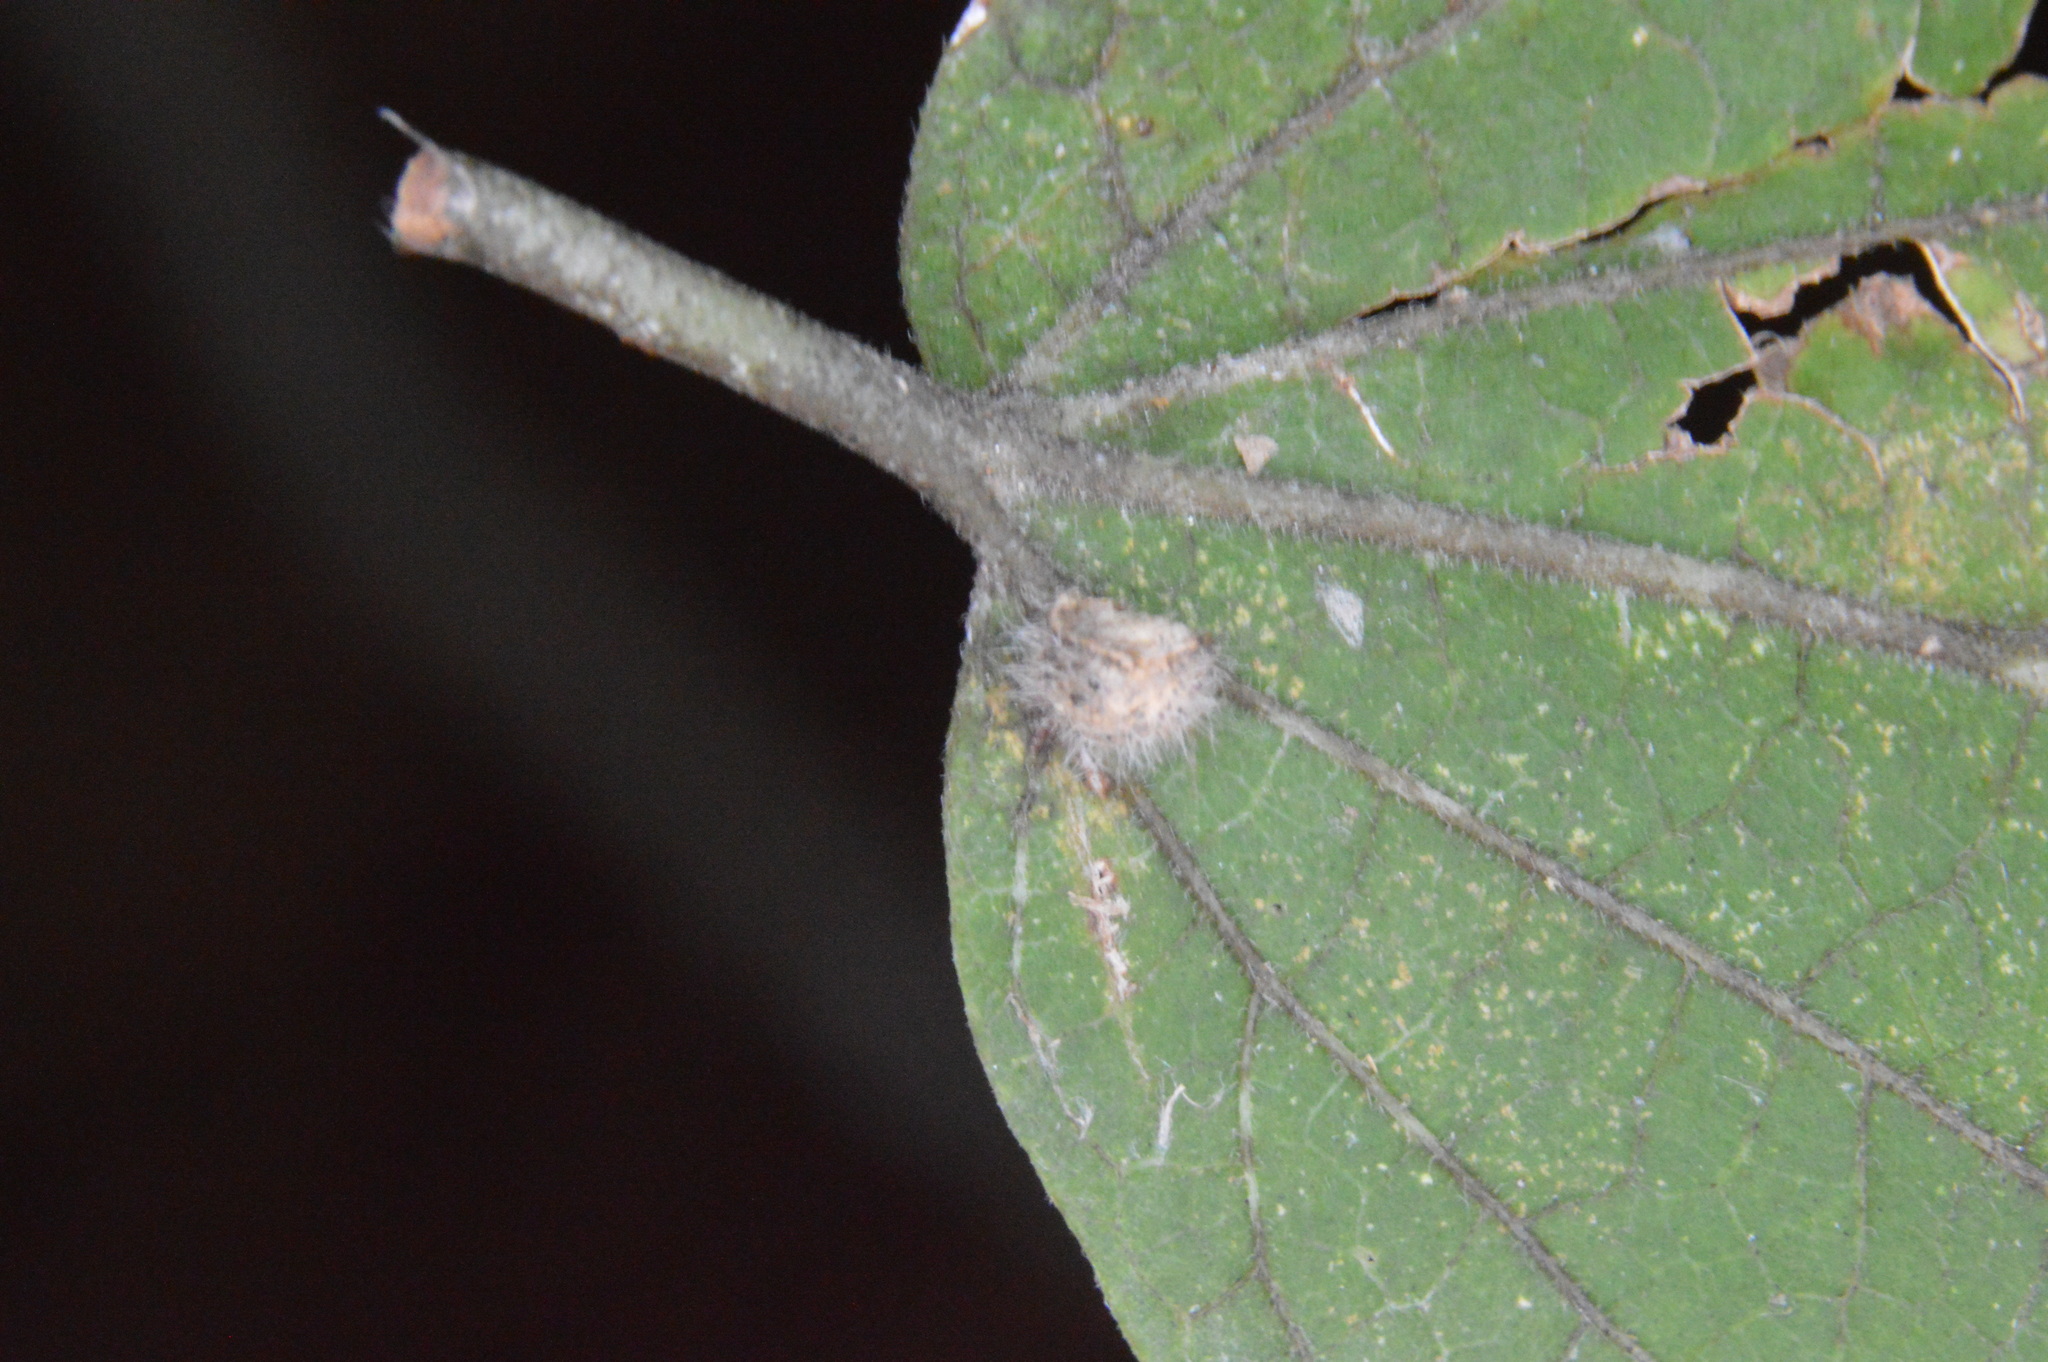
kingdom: Animalia
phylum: Arthropoda
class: Insecta
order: Diptera
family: Cecidomyiidae
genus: Celticecis
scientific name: Celticecis pubescens
